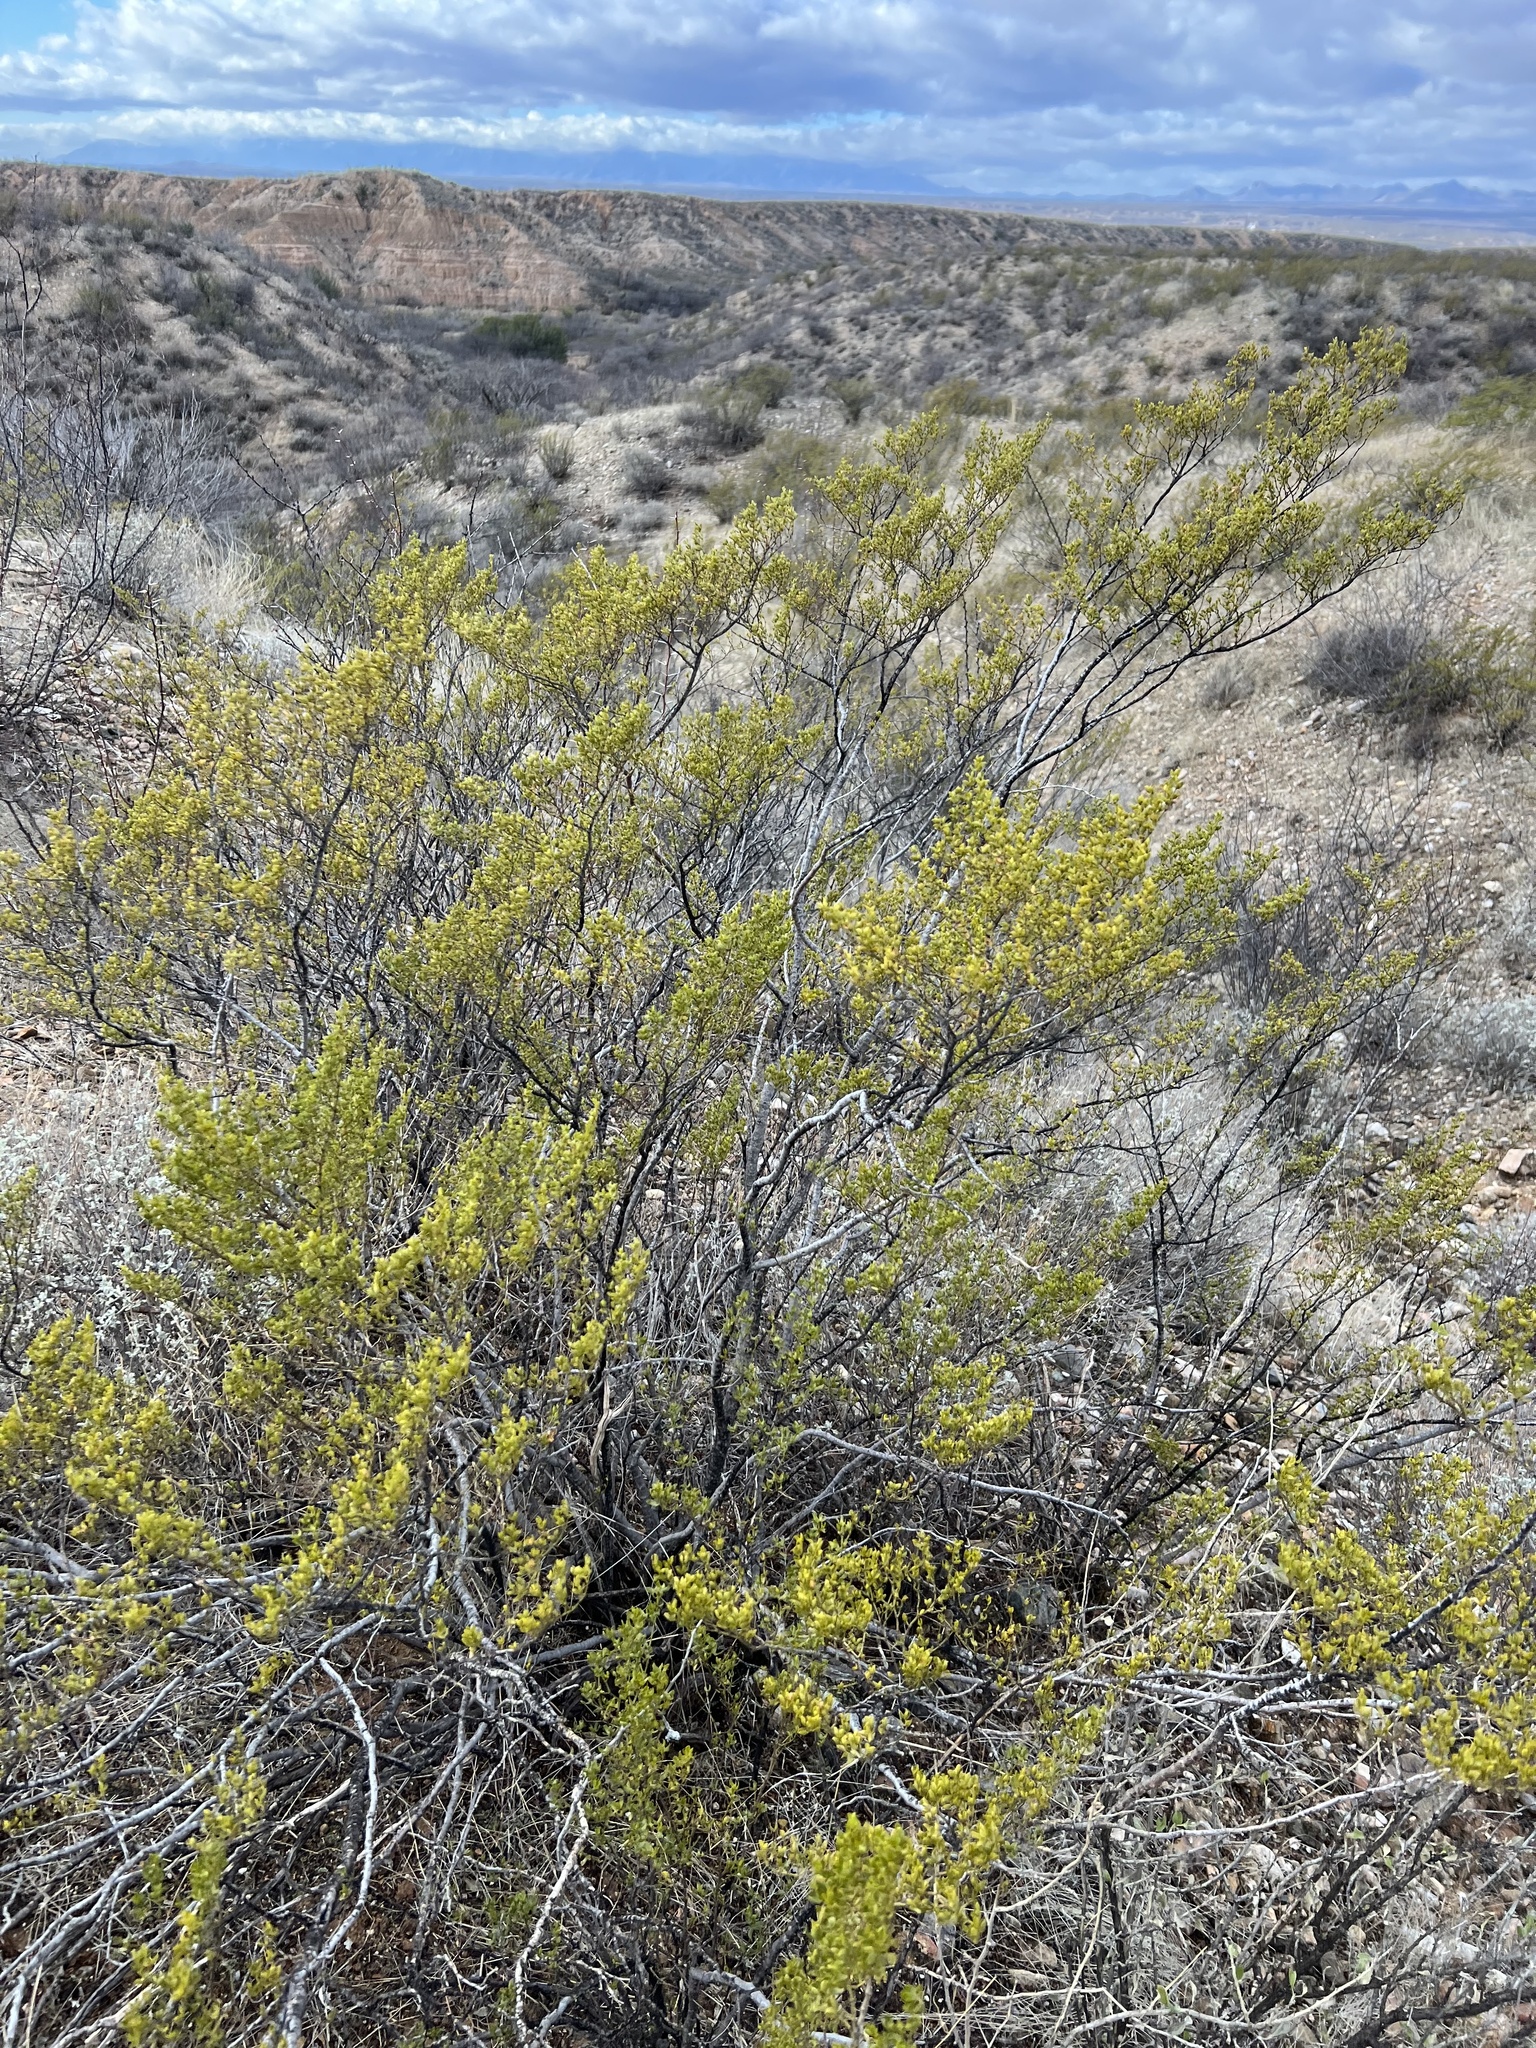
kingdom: Plantae
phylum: Tracheophyta
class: Magnoliopsida
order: Zygophyllales
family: Zygophyllaceae
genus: Larrea
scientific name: Larrea tridentata
